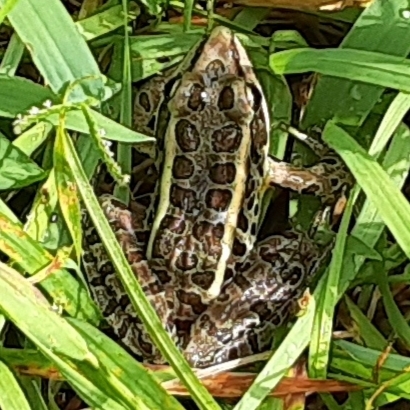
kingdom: Animalia
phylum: Chordata
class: Amphibia
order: Anura
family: Ranidae
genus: Lithobates
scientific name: Lithobates palustris
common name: Pickerel frog
